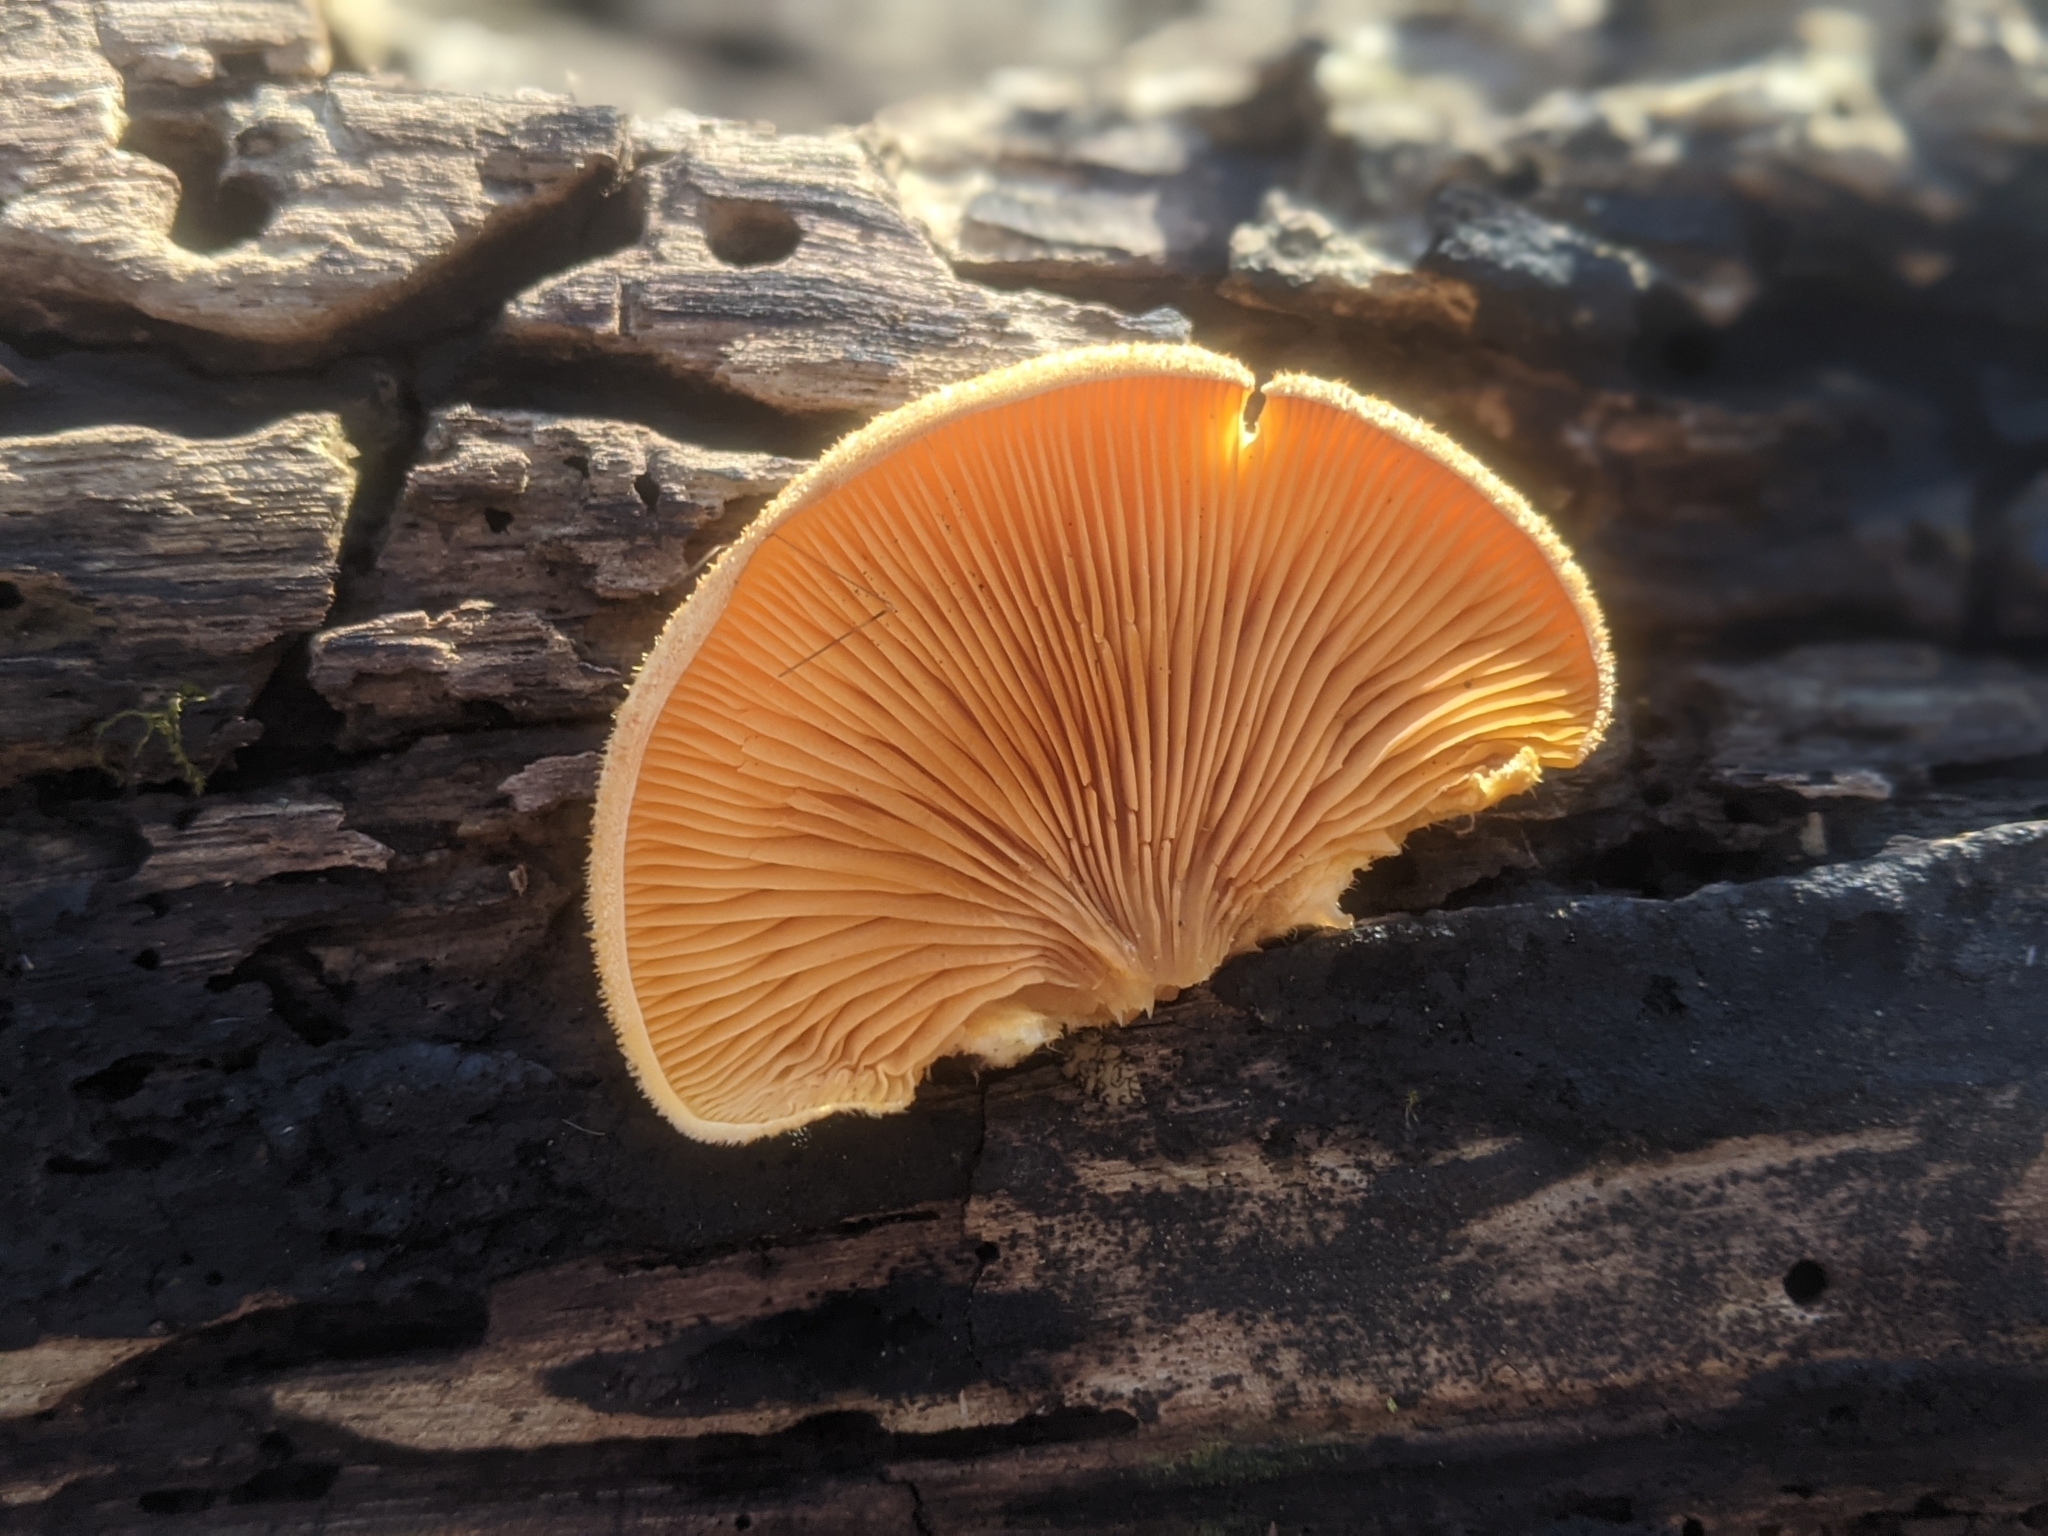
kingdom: Fungi
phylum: Basidiomycota
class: Agaricomycetes
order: Agaricales
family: Phyllotopsidaceae
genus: Phyllotopsis
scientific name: Phyllotopsis nidulans
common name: Orange mock oyster
